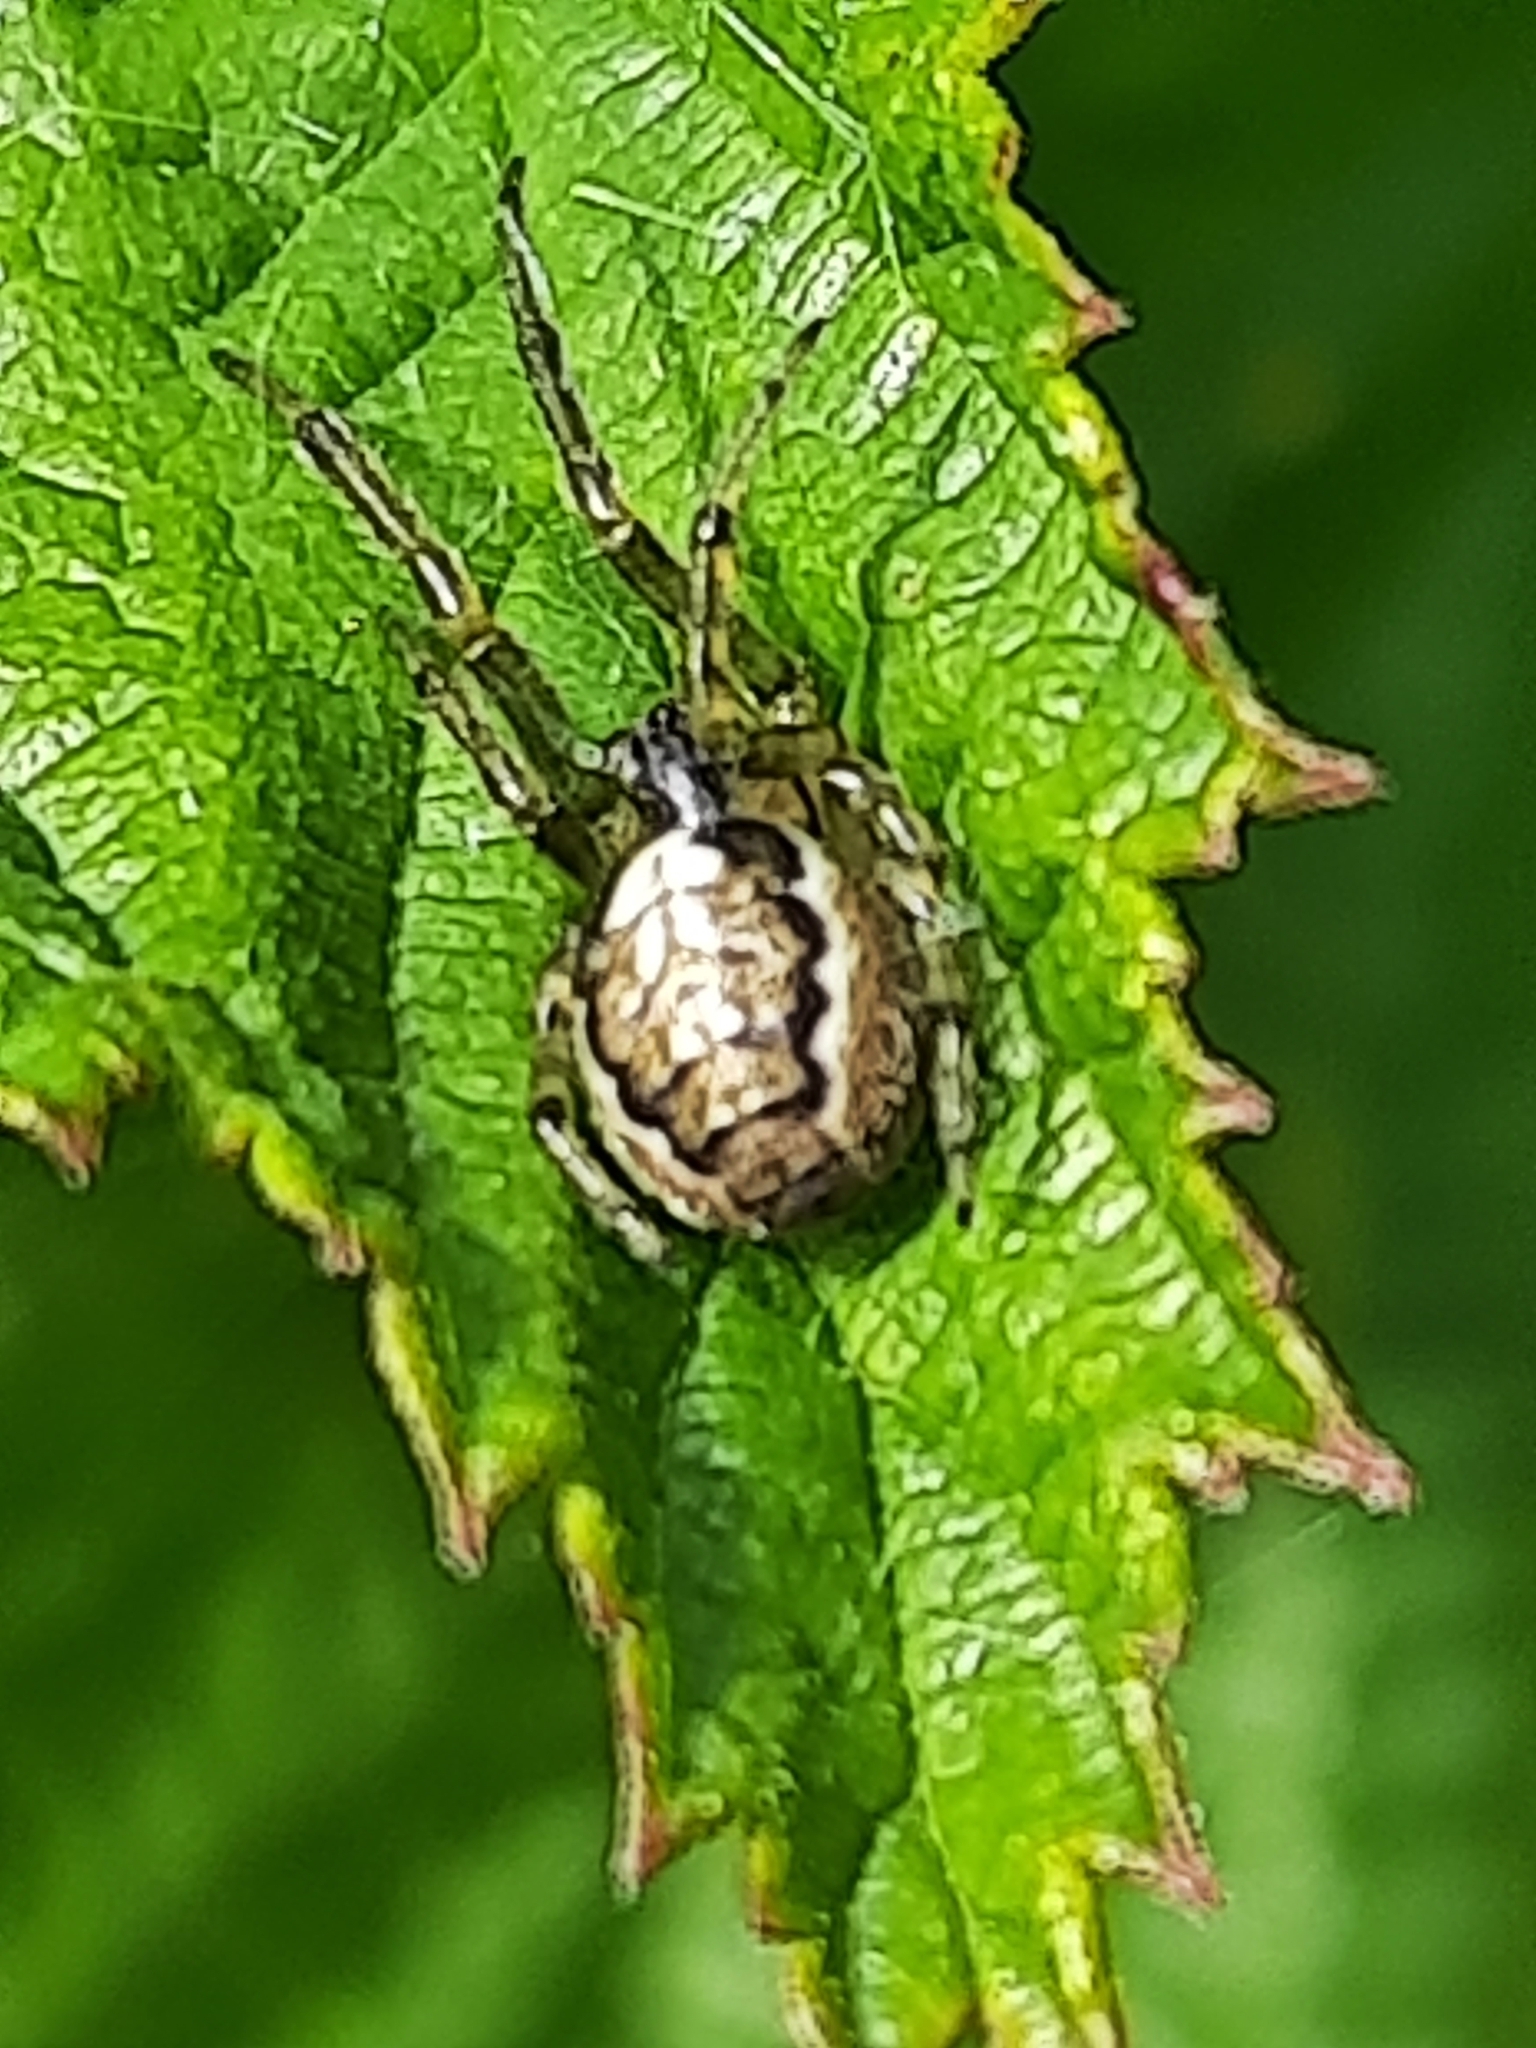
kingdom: Animalia
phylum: Arthropoda
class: Arachnida
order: Araneae
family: Araneidae
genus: Zygiella
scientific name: Zygiella x-notata
